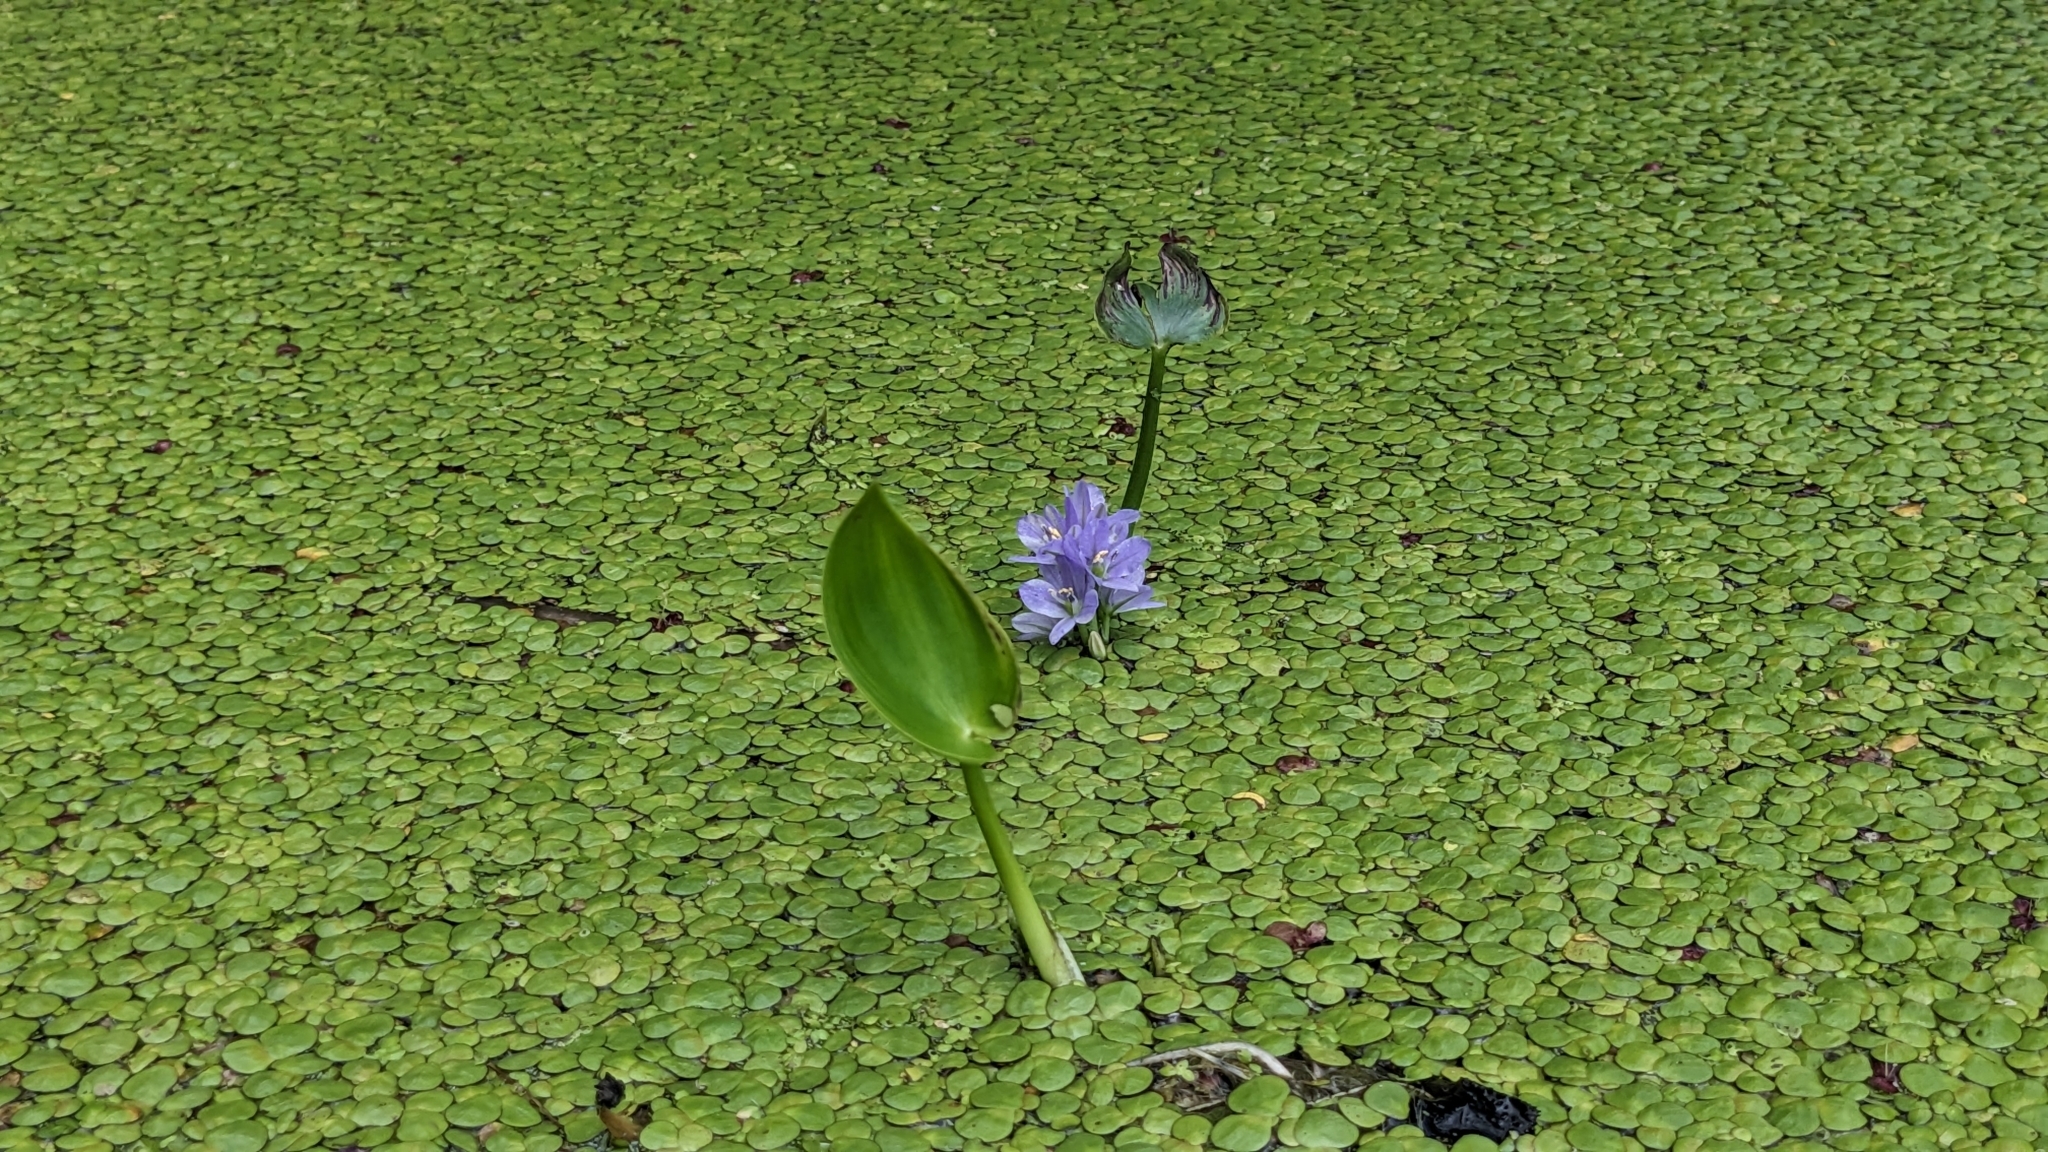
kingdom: Plantae
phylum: Tracheophyta
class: Liliopsida
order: Commelinales
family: Pontederiaceae
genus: Pontederia
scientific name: Pontederia vaginalis
